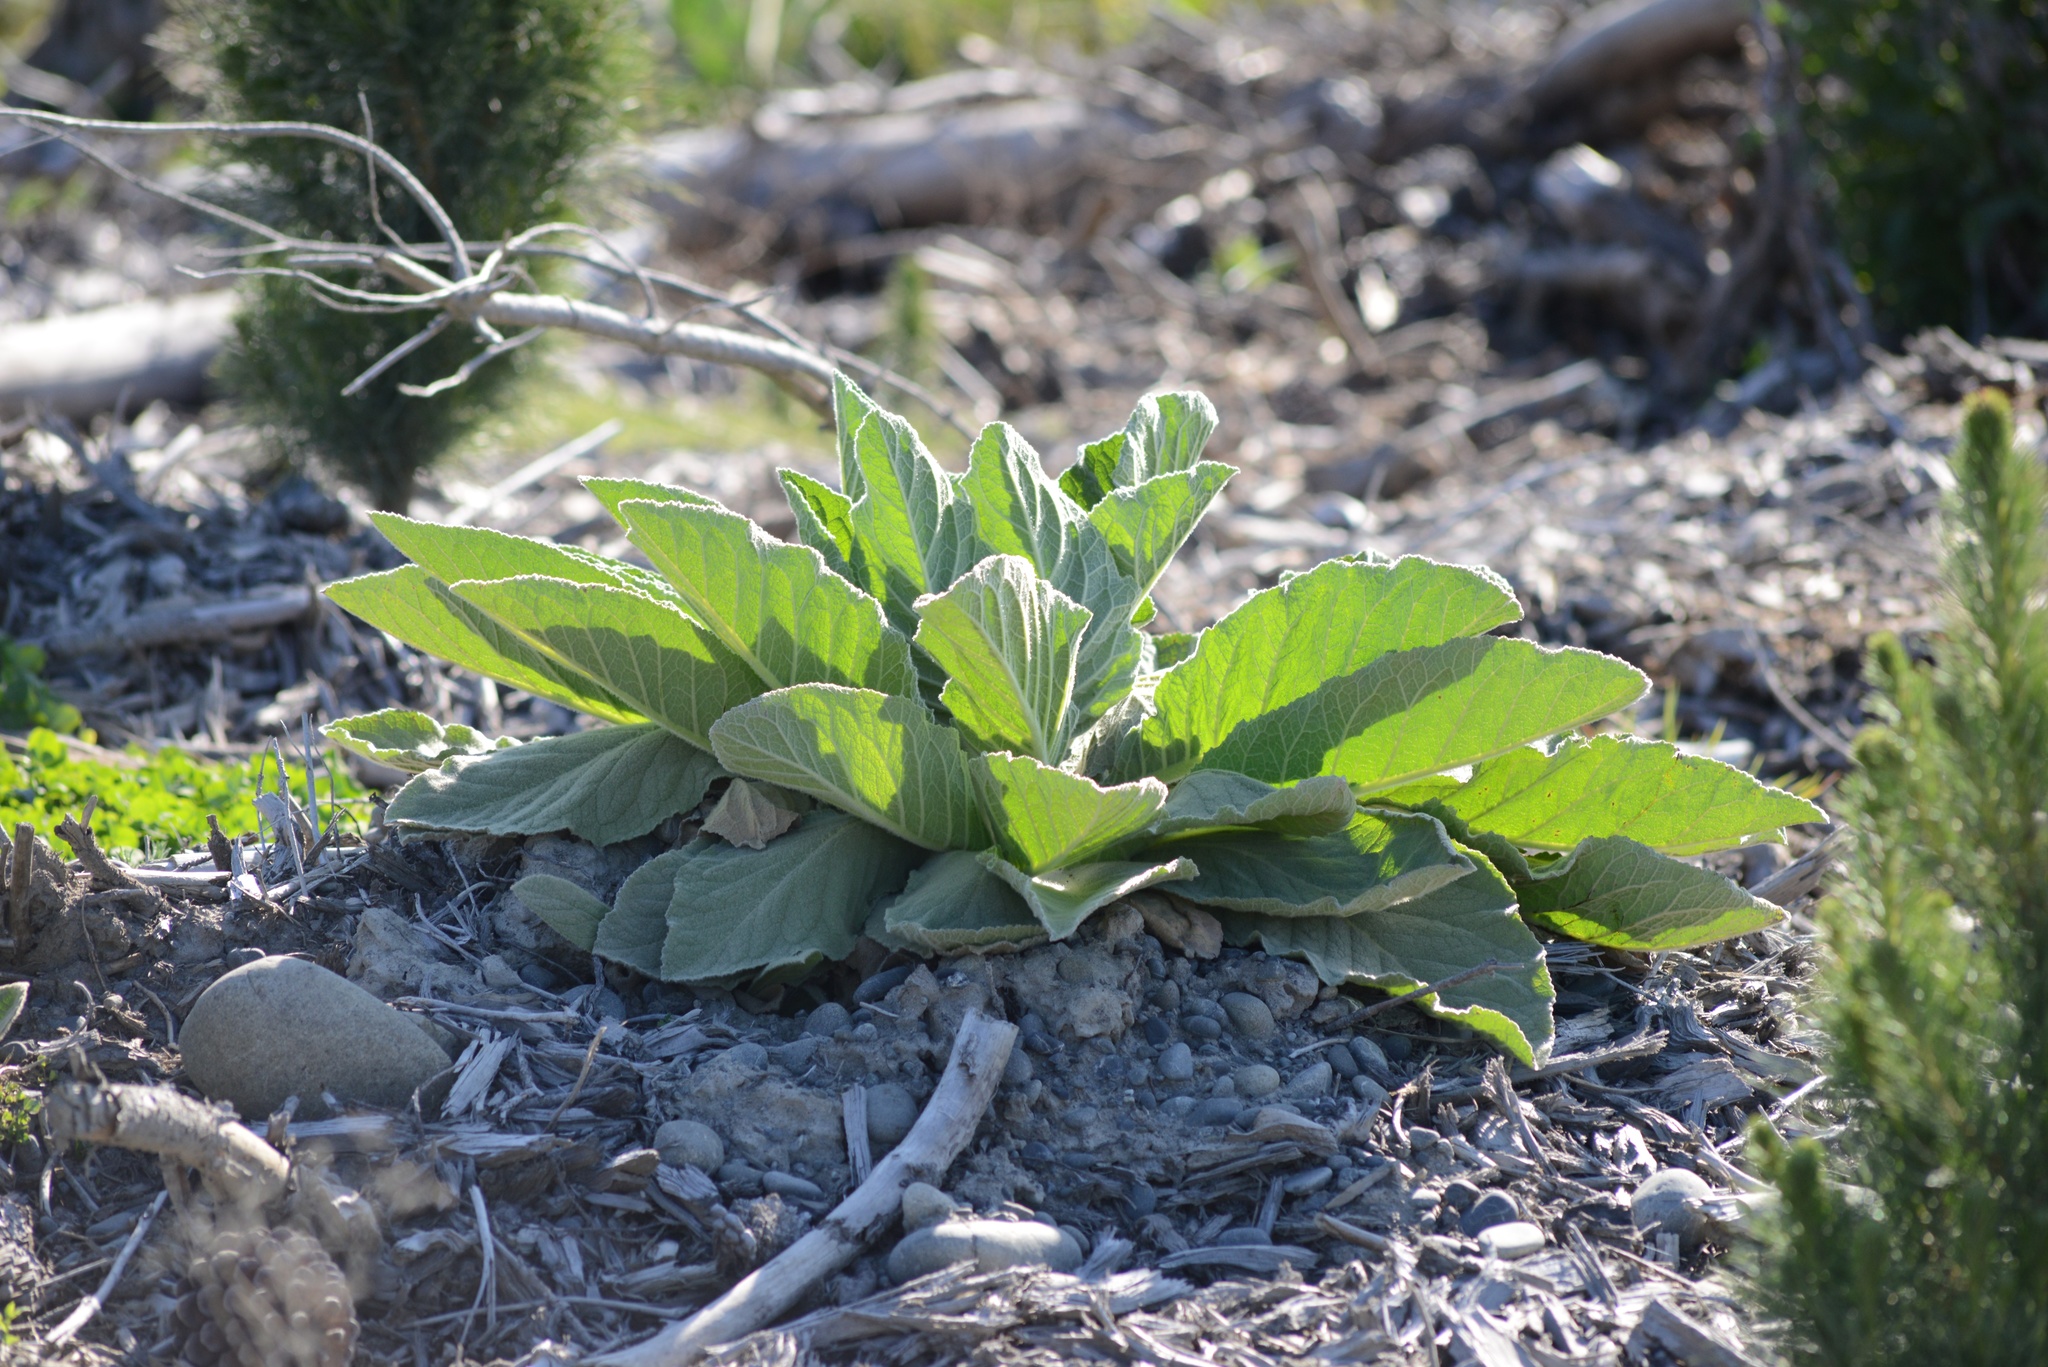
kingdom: Plantae
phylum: Tracheophyta
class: Magnoliopsida
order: Lamiales
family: Scrophulariaceae
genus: Verbascum
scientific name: Verbascum thapsus
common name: Common mullein
